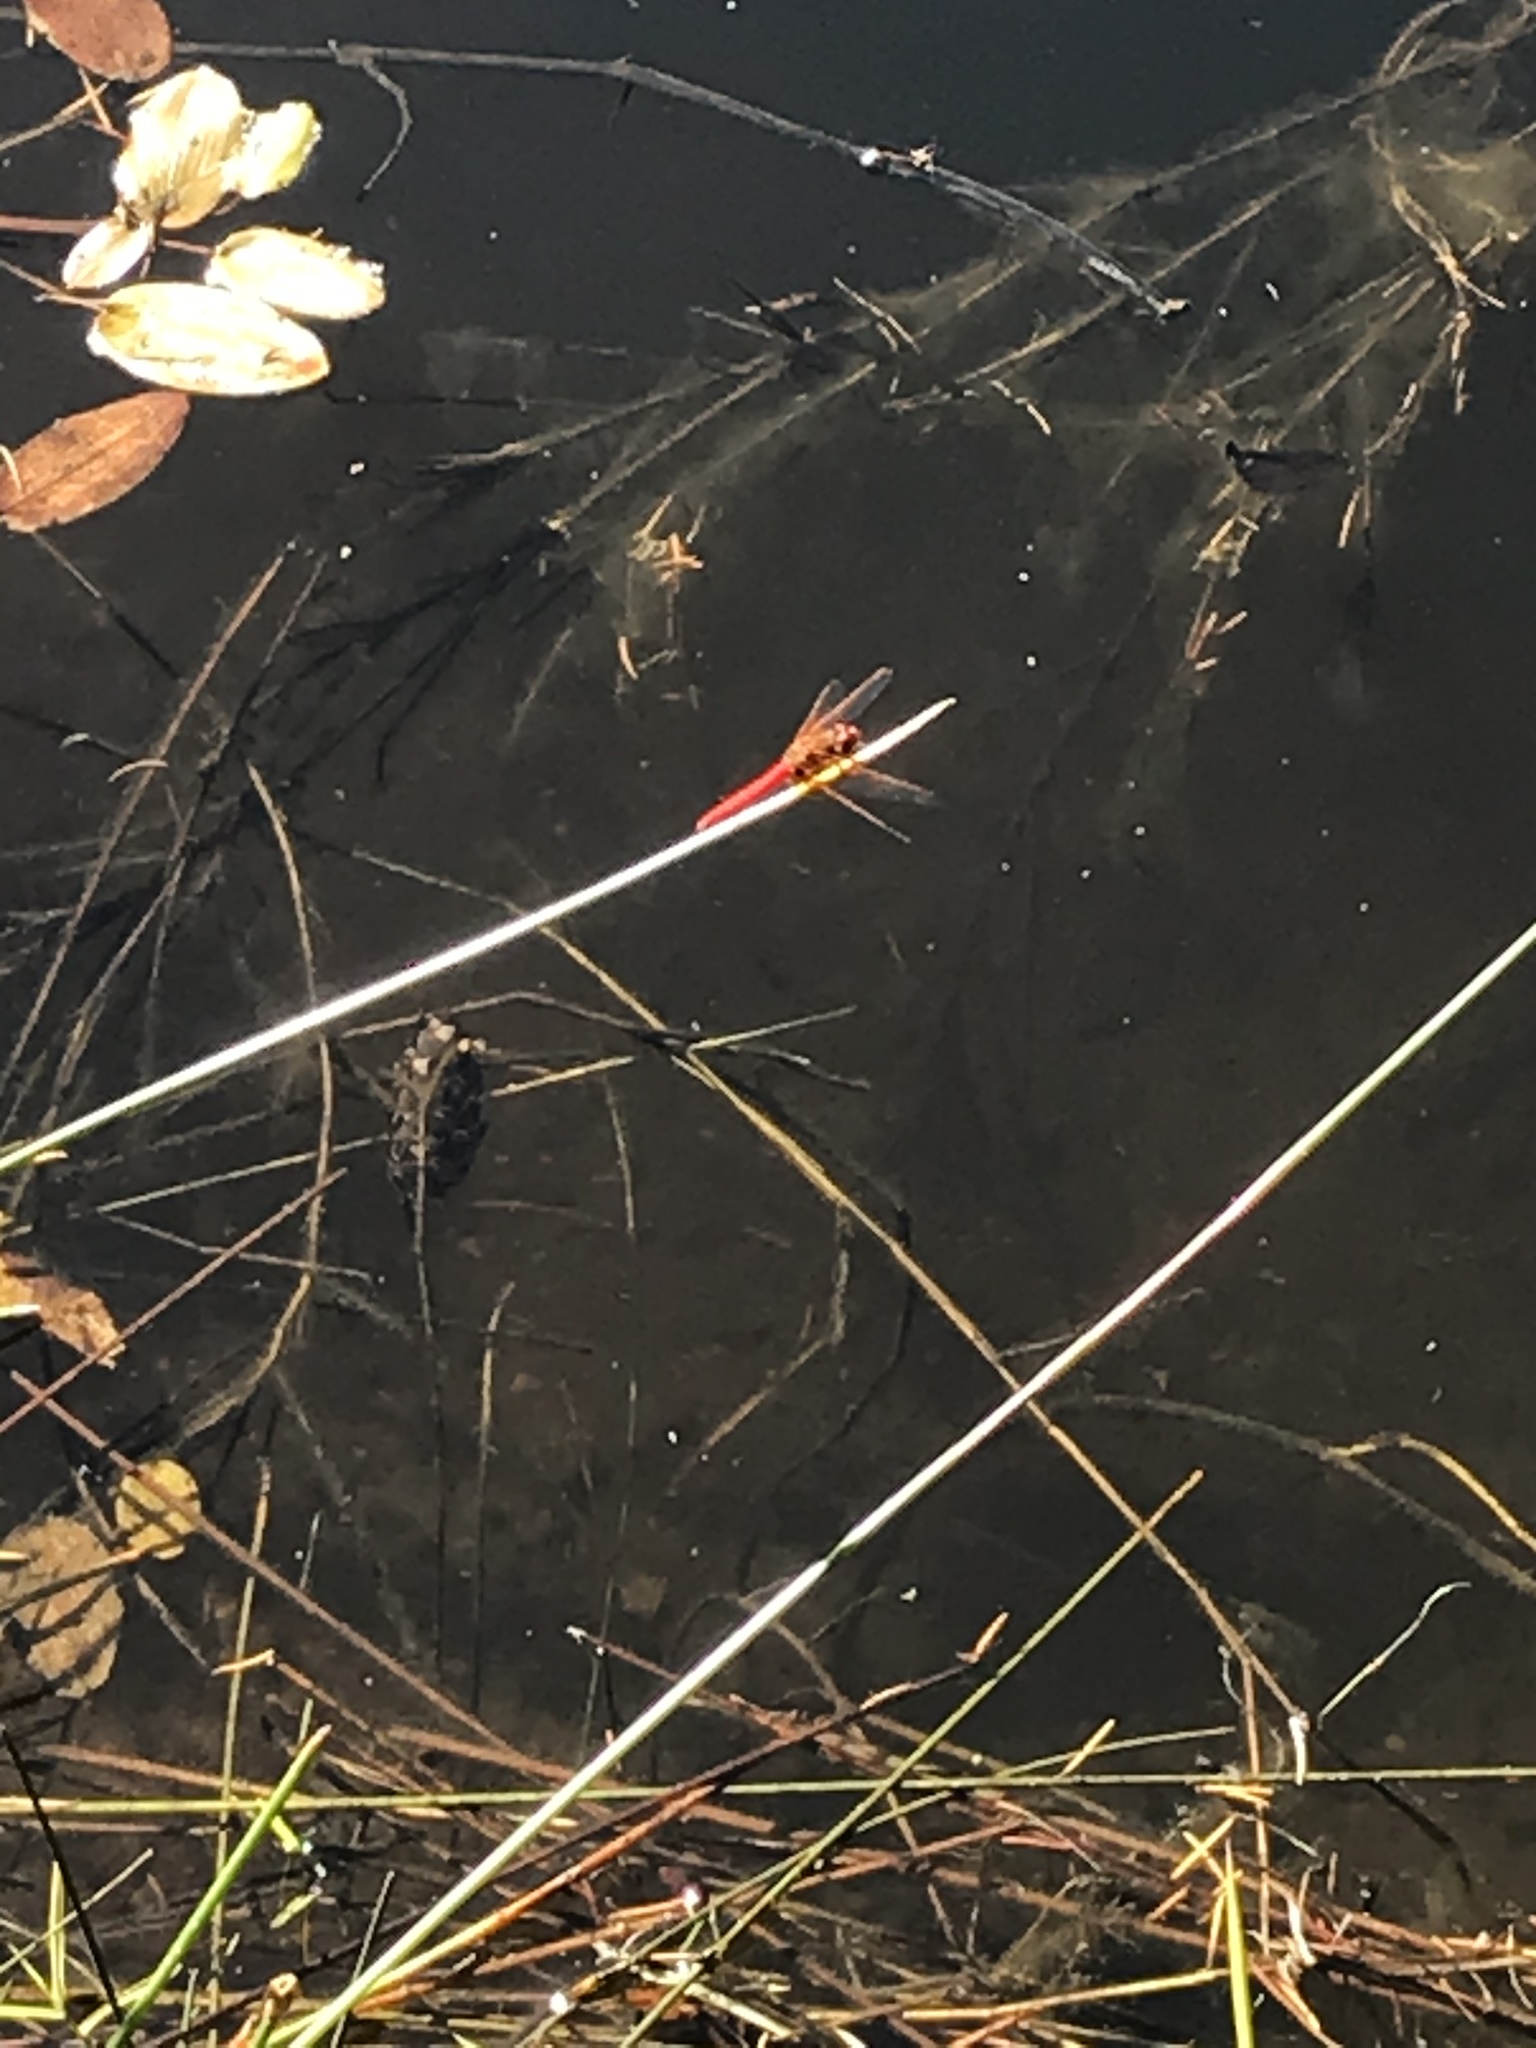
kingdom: Animalia
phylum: Arthropoda
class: Insecta
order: Odonata
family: Libellulidae
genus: Sympetrum
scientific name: Sympetrum illotum
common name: Cardinal meadowhawk
